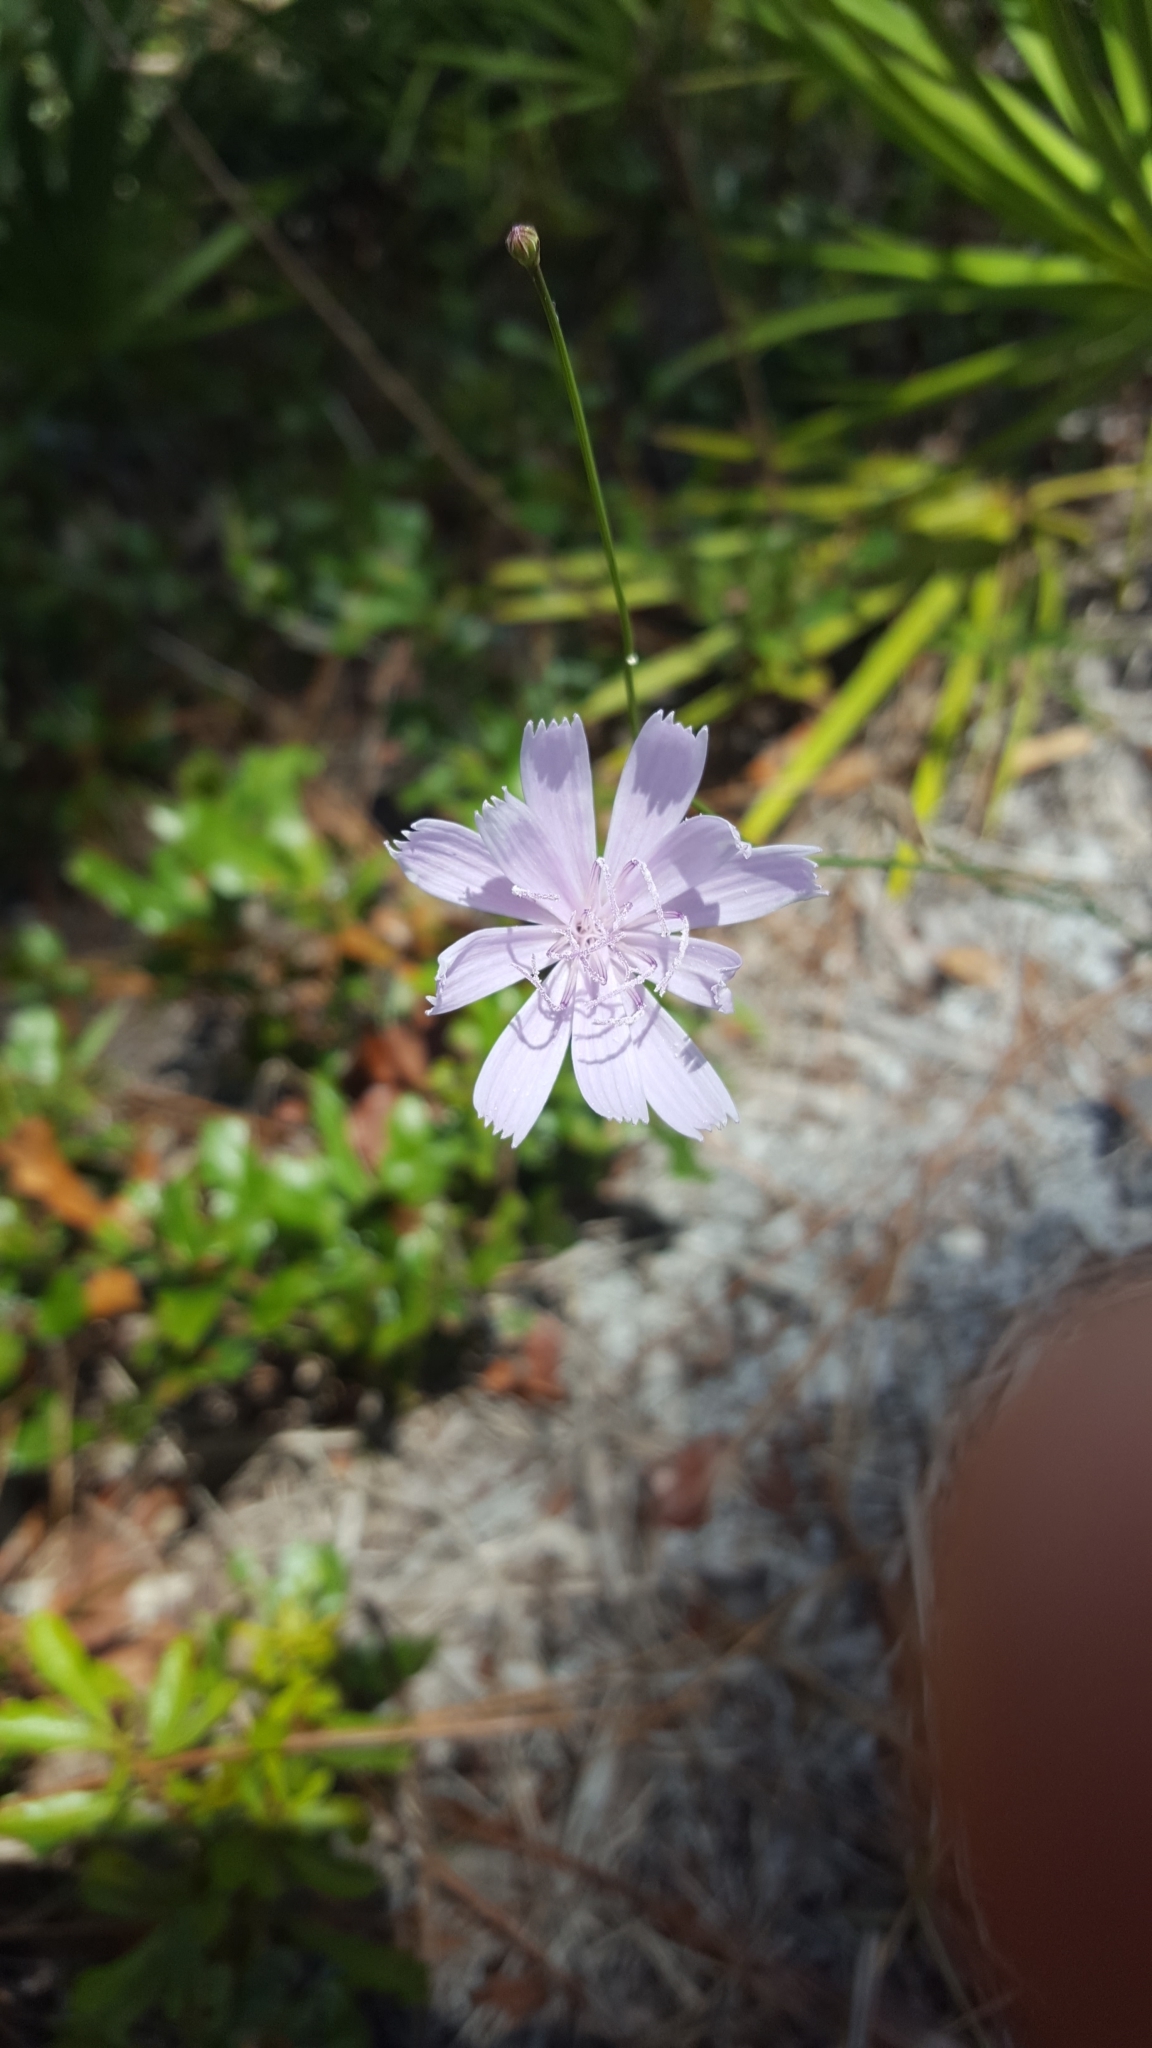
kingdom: Plantae
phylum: Tracheophyta
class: Magnoliopsida
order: Asterales
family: Asteraceae
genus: Lygodesmia
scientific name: Lygodesmia aphylla
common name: Rose-rush
